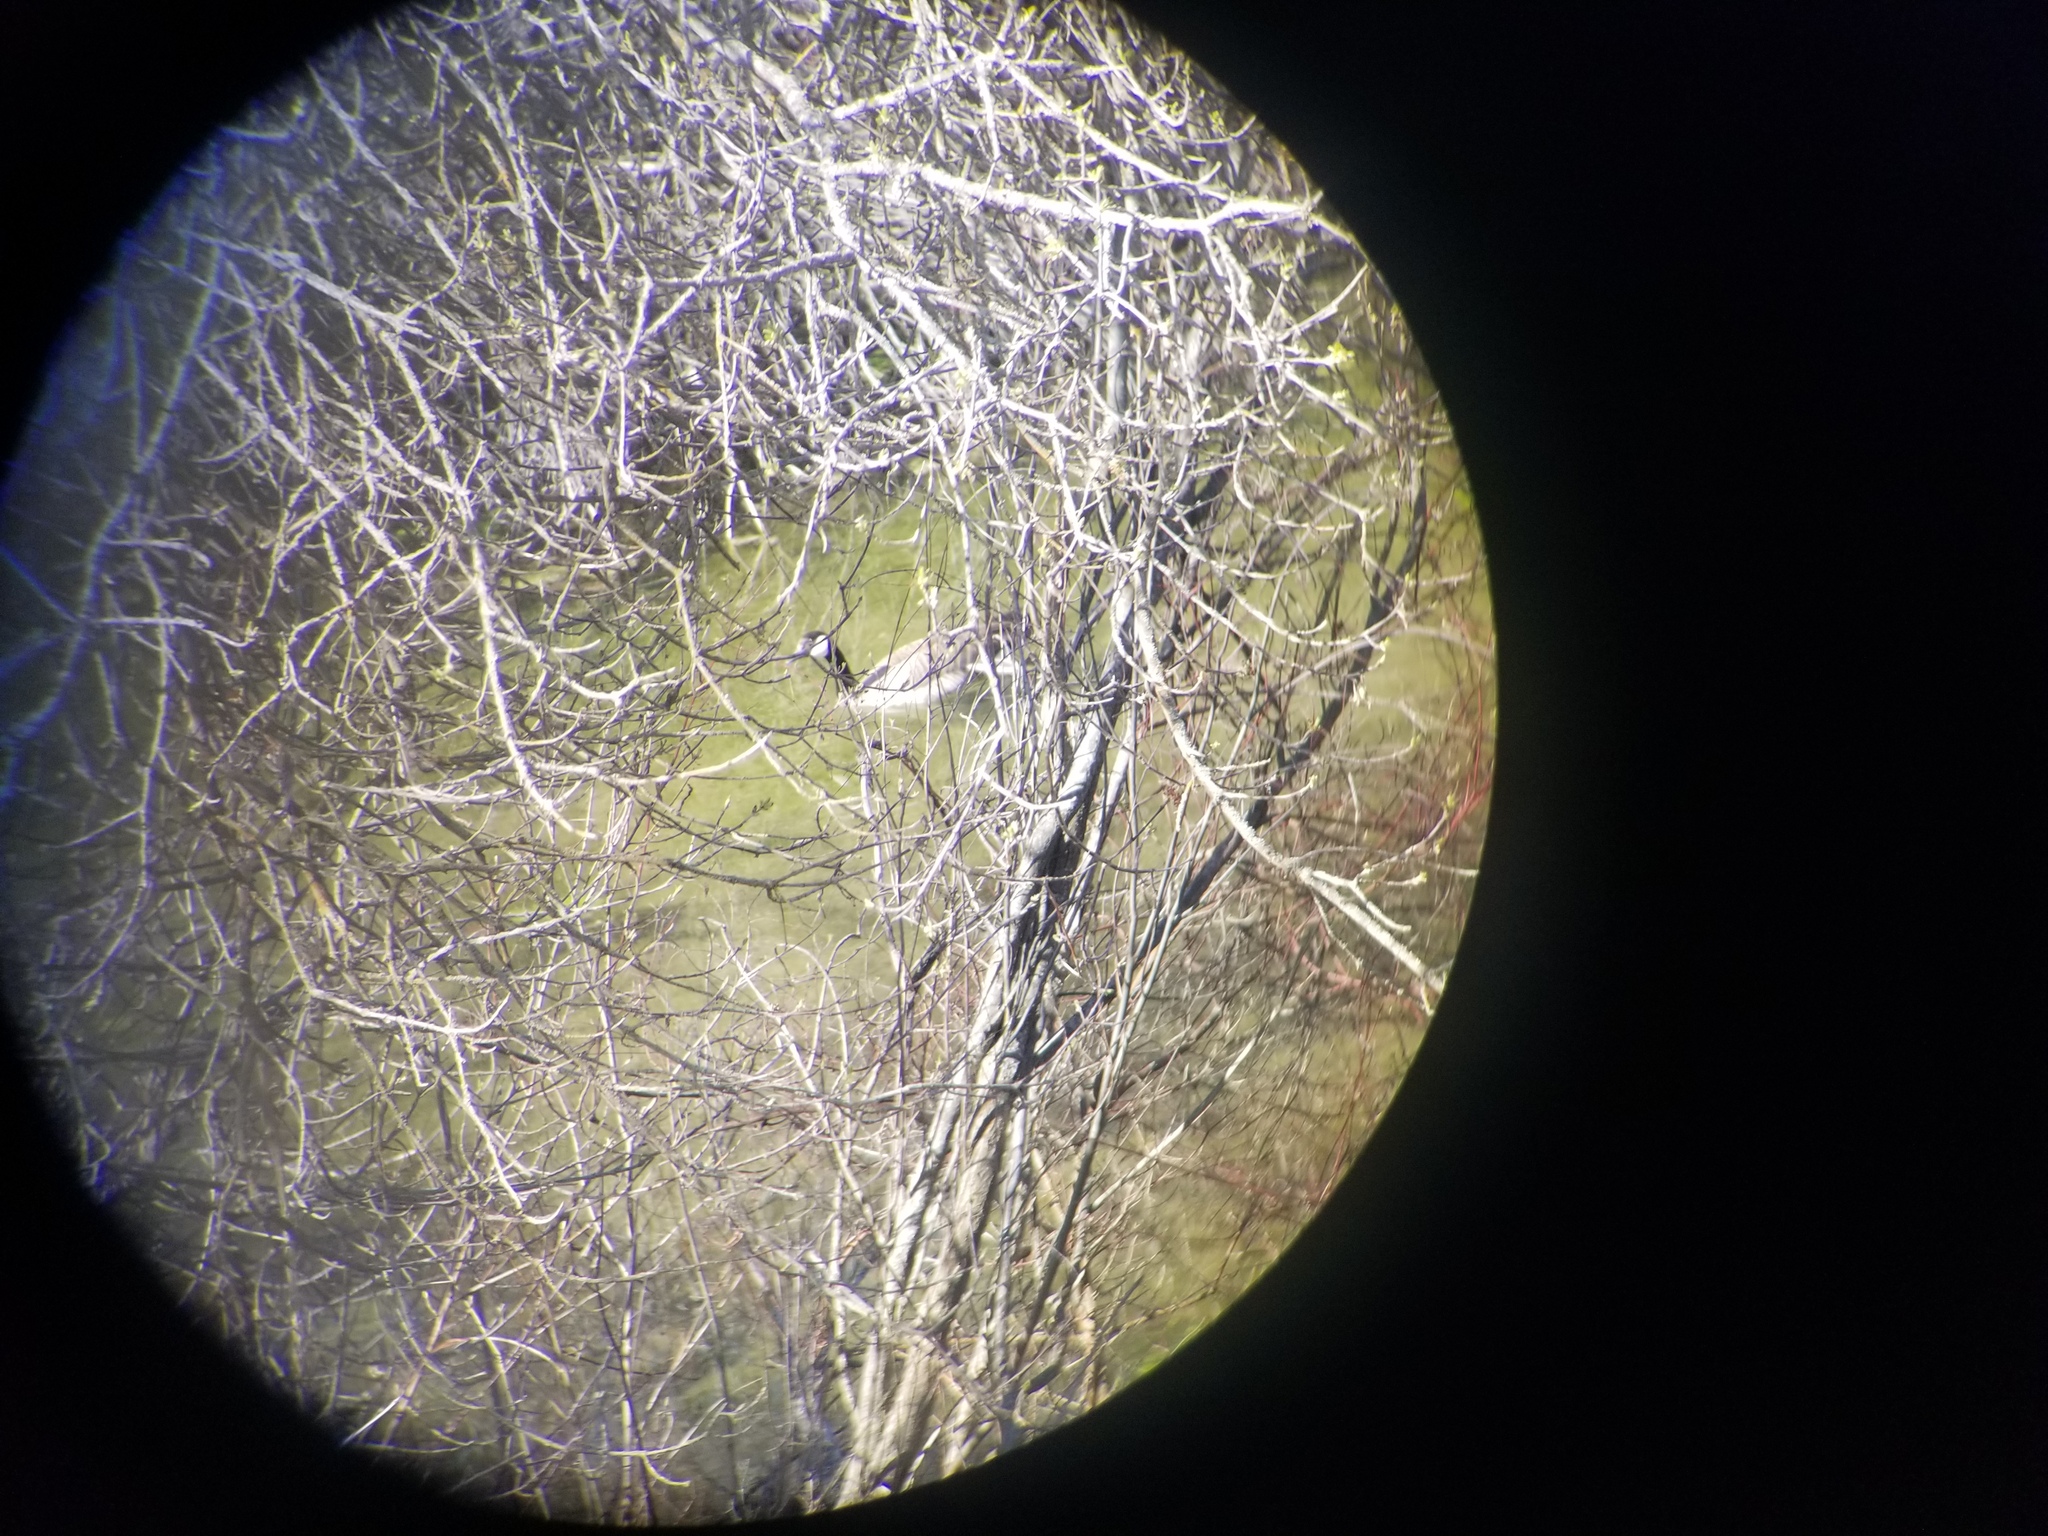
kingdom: Animalia
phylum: Chordata
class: Aves
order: Anseriformes
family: Anatidae
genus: Branta
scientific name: Branta canadensis
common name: Canada goose
